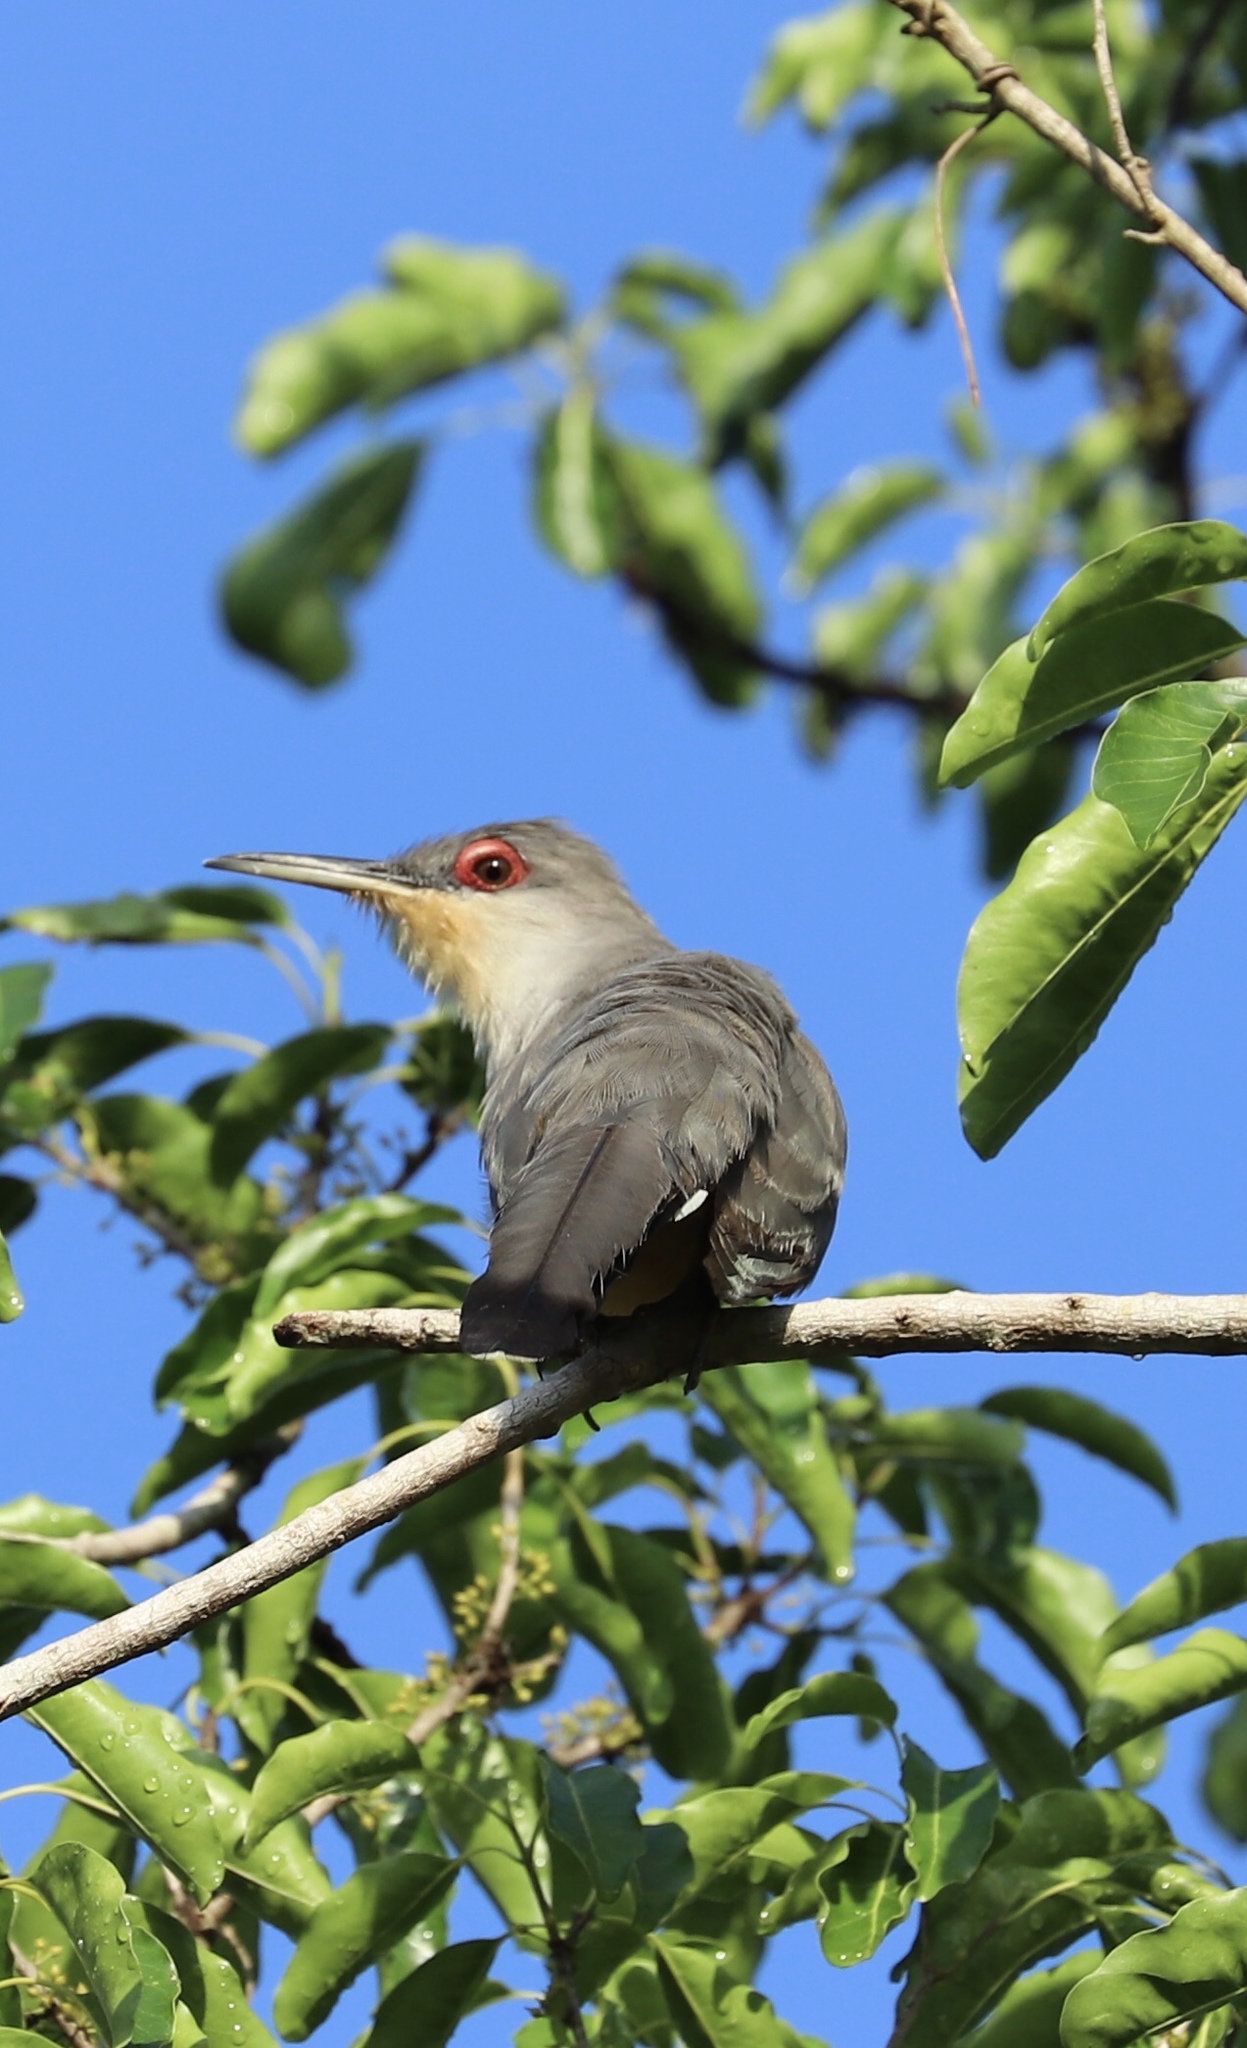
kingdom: Animalia
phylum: Chordata
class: Aves
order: Cuculiformes
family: Cuculidae
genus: Saurothera
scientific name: Saurothera longirostris
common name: Hispaniolan lizard-cuckoo
